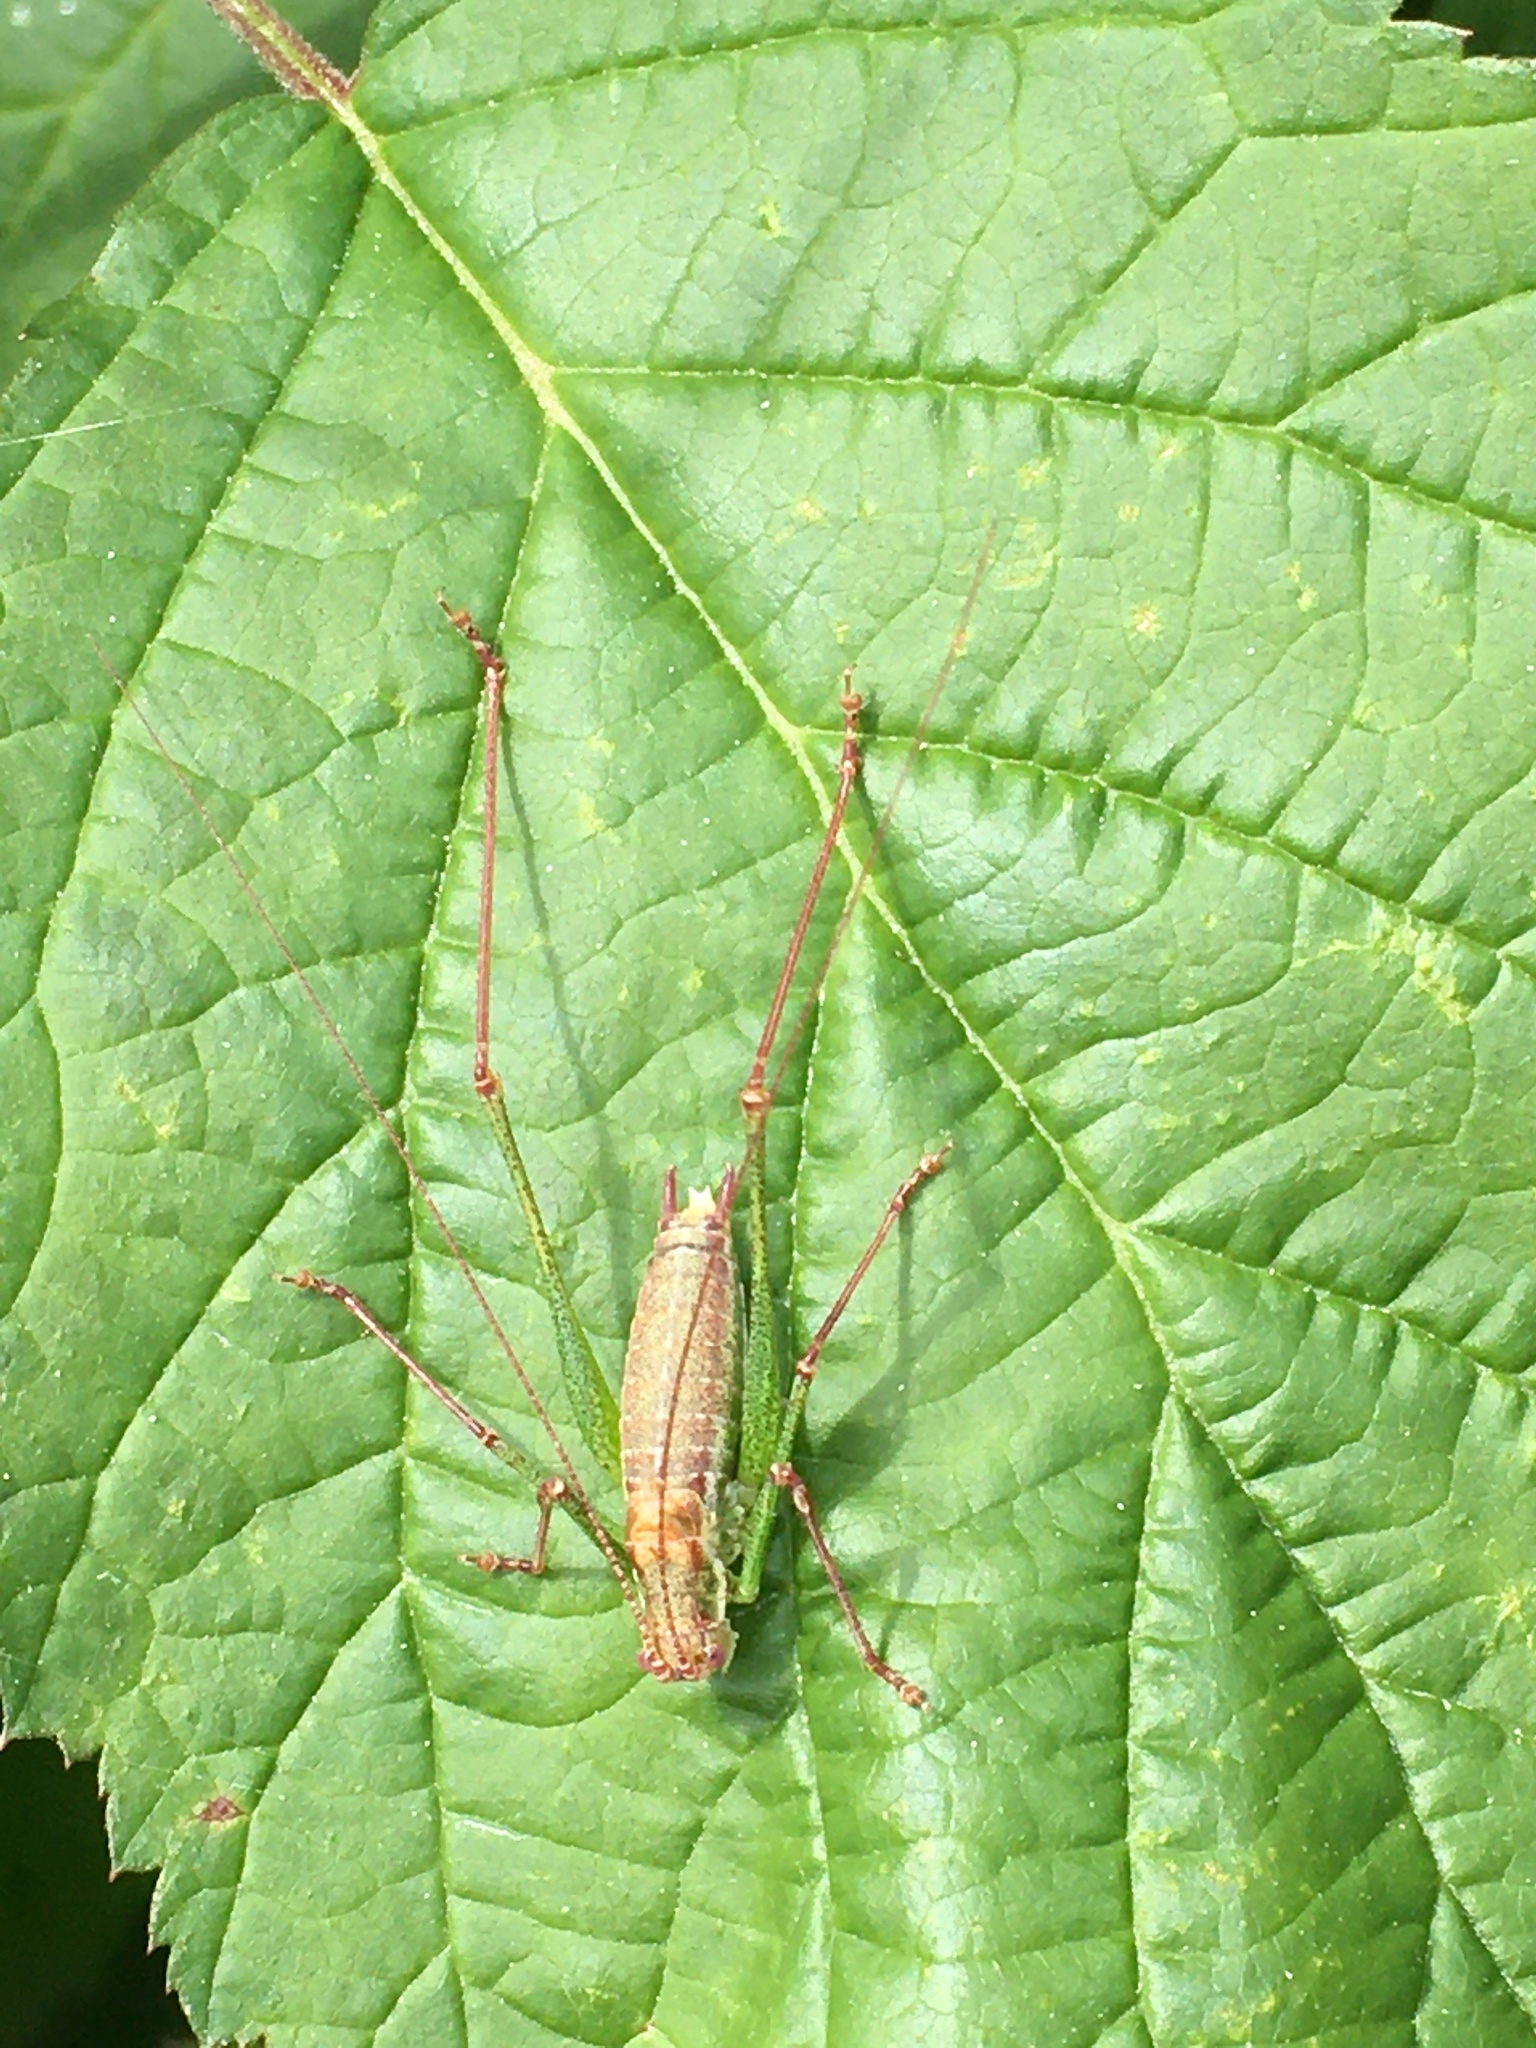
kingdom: Animalia
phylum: Arthropoda
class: Insecta
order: Orthoptera
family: Tettigoniidae
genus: Leptophyes
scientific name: Leptophyes albovittata
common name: Striped bush-cricket
